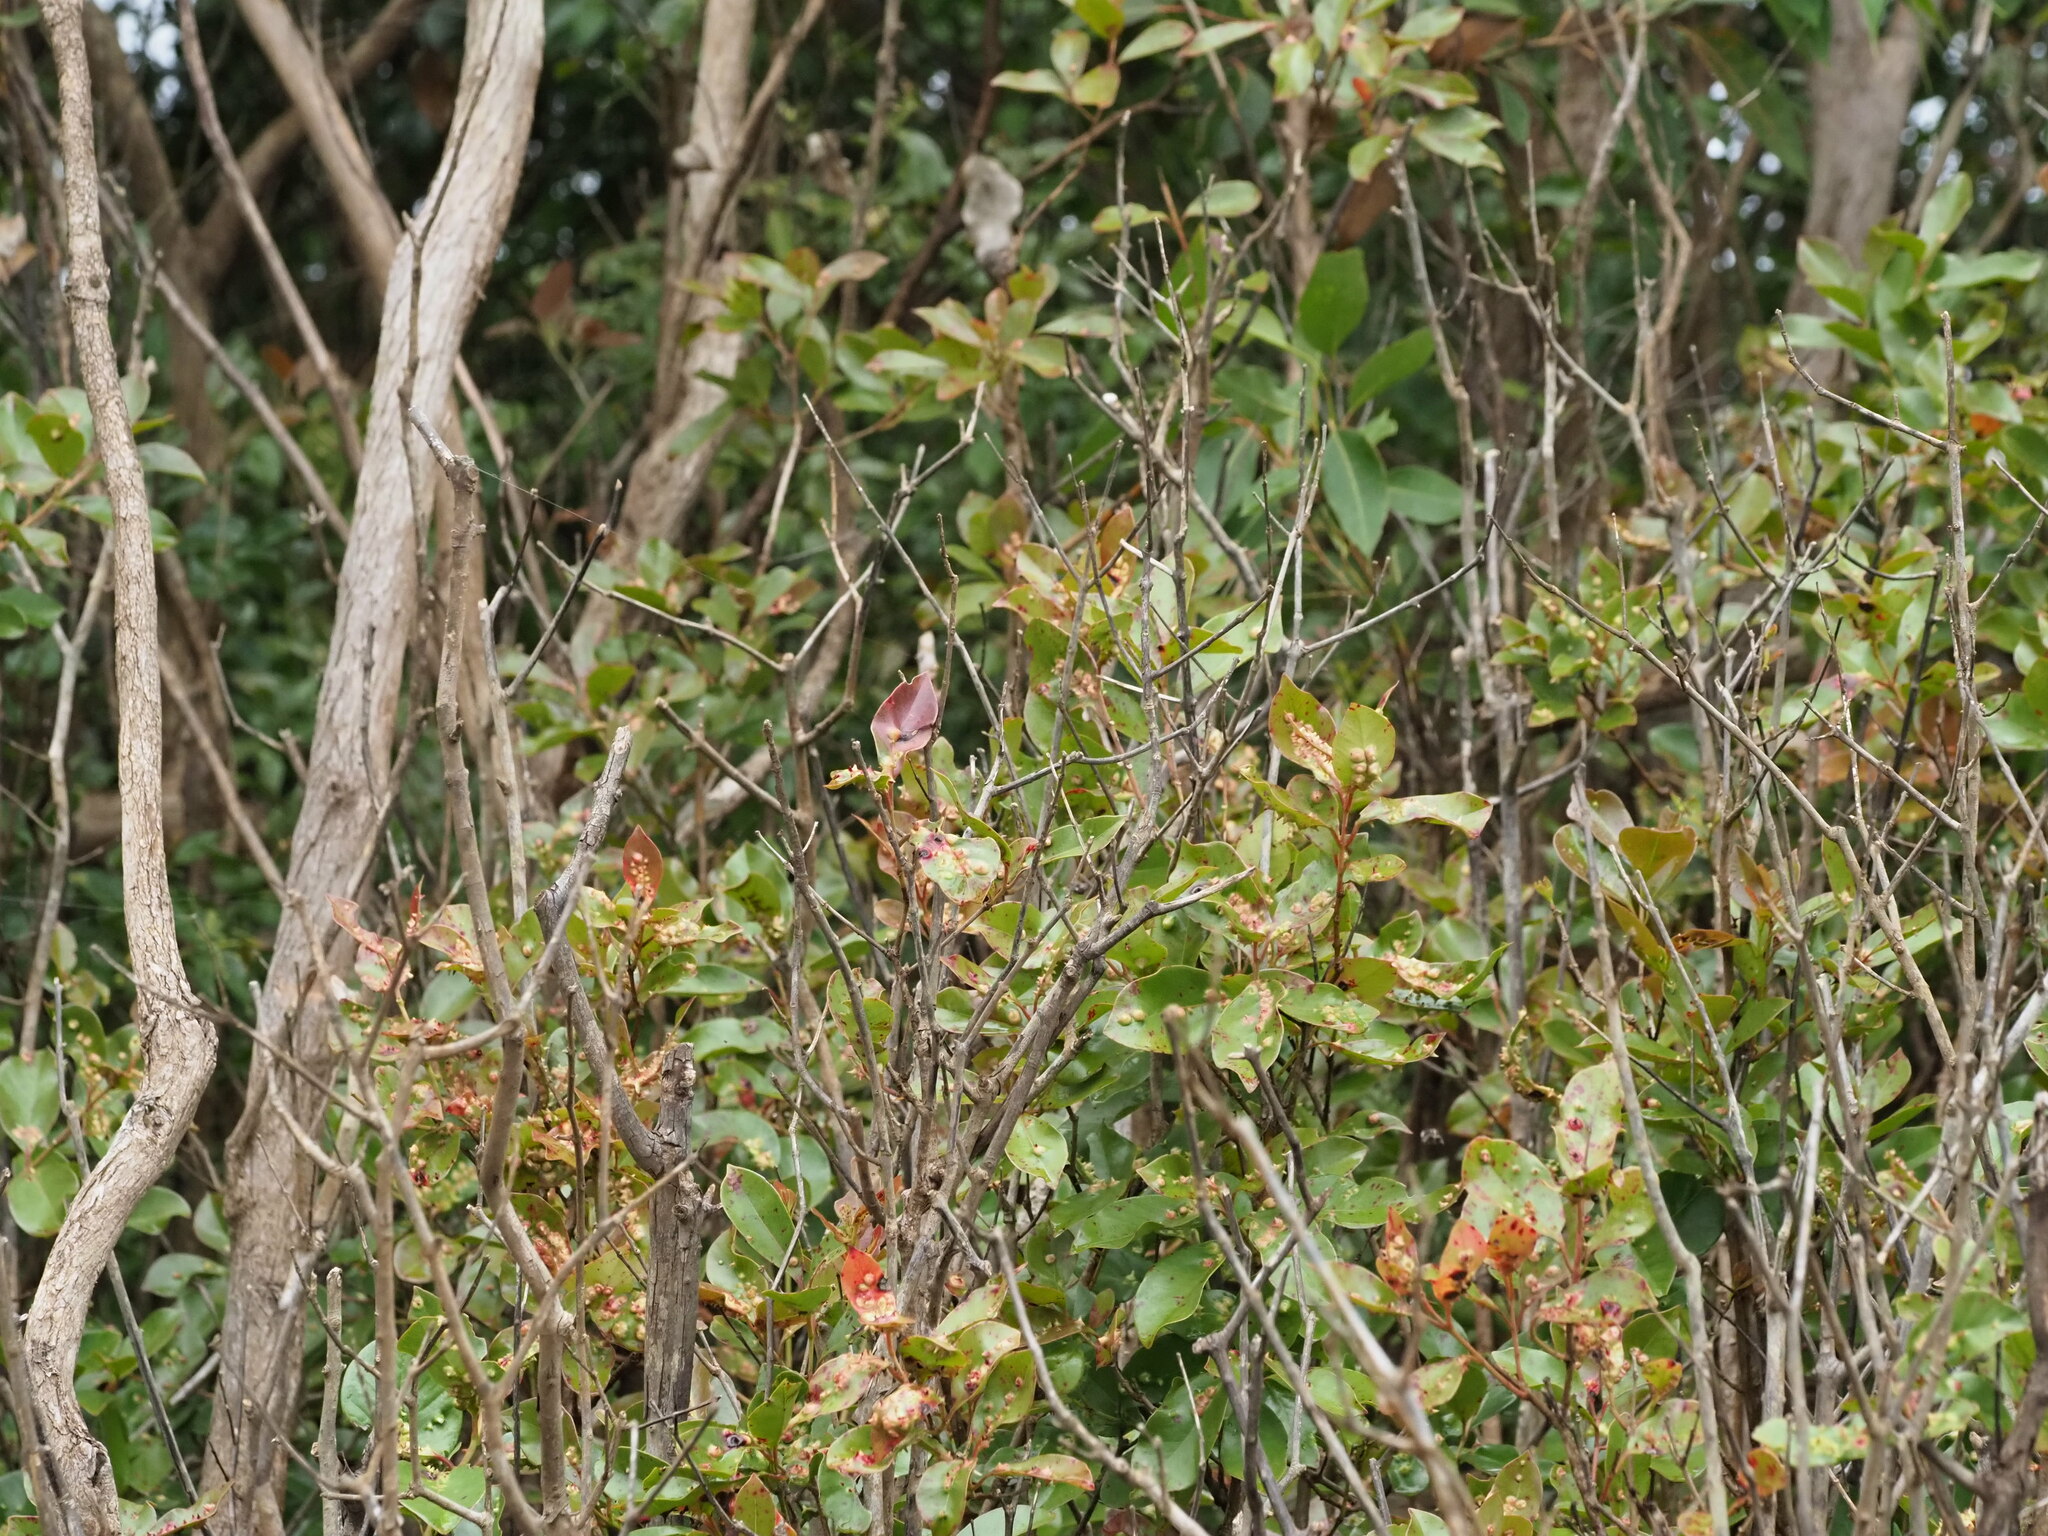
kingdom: Animalia
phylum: Arthropoda
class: Insecta
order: Hemiptera
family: Eriococcidae
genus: Tectococcus
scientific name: Tectococcus ovatus
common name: Eriococcid scale
